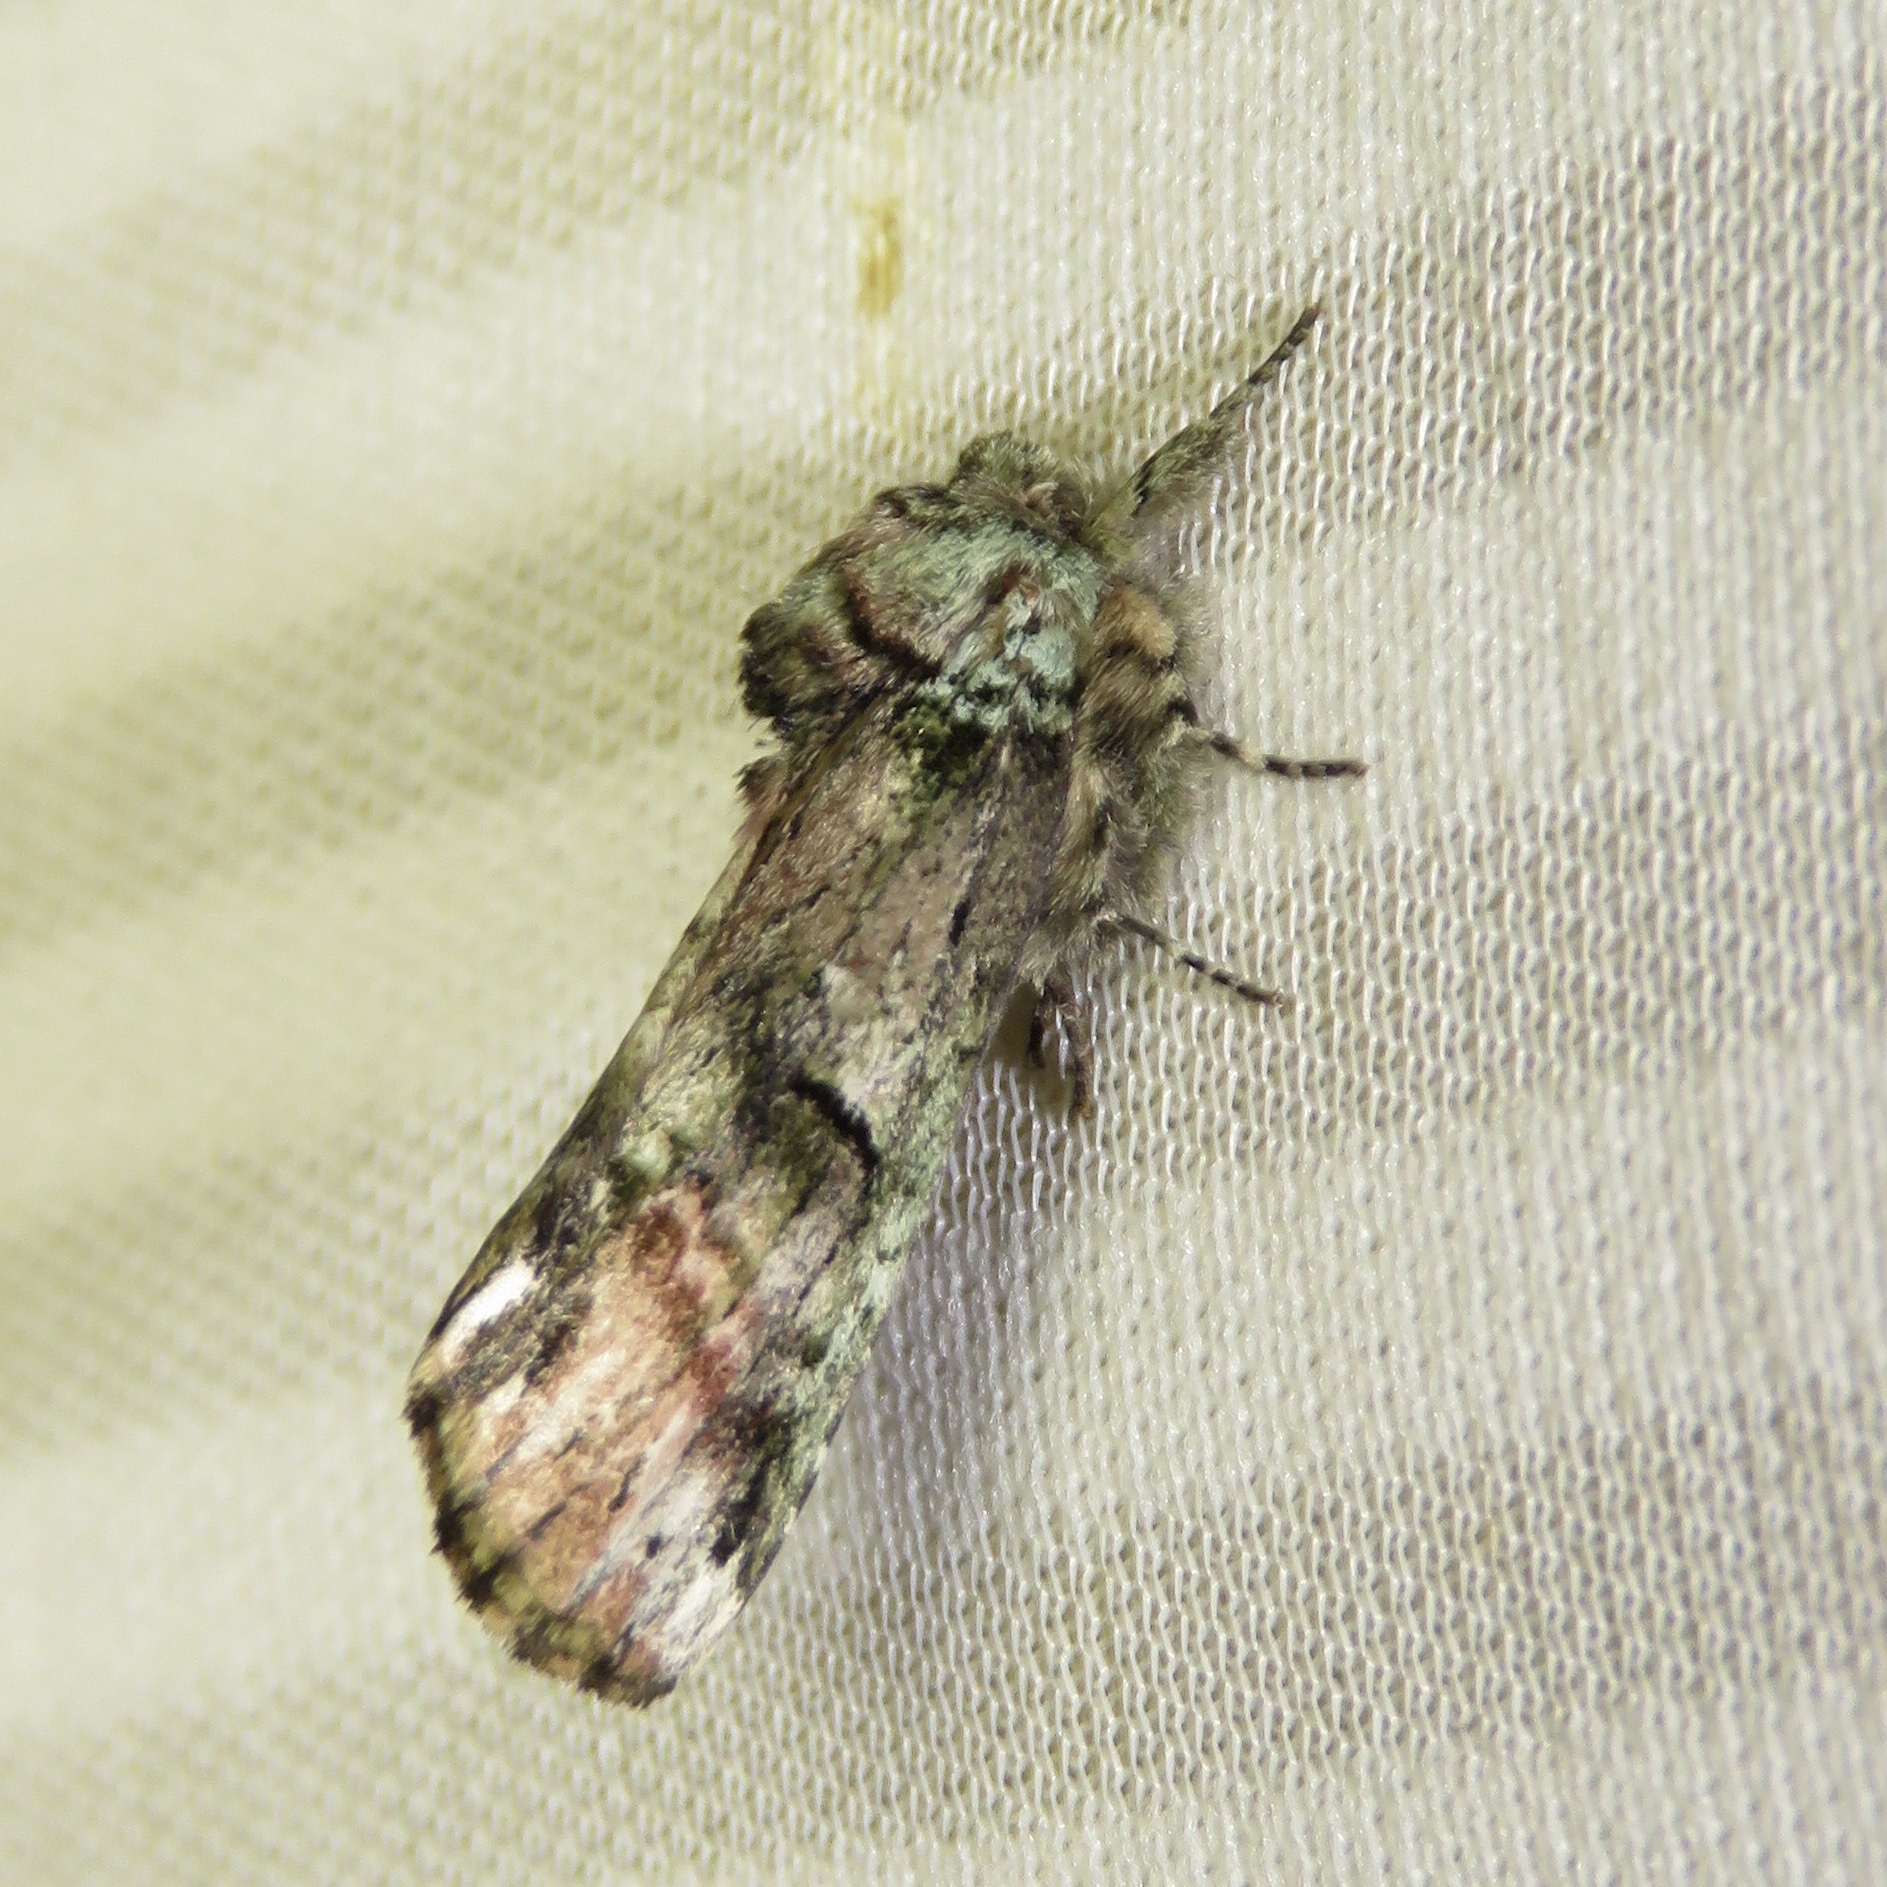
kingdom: Animalia
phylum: Arthropoda
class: Insecta
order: Lepidoptera
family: Notodontidae
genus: Schizura
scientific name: Schizura
